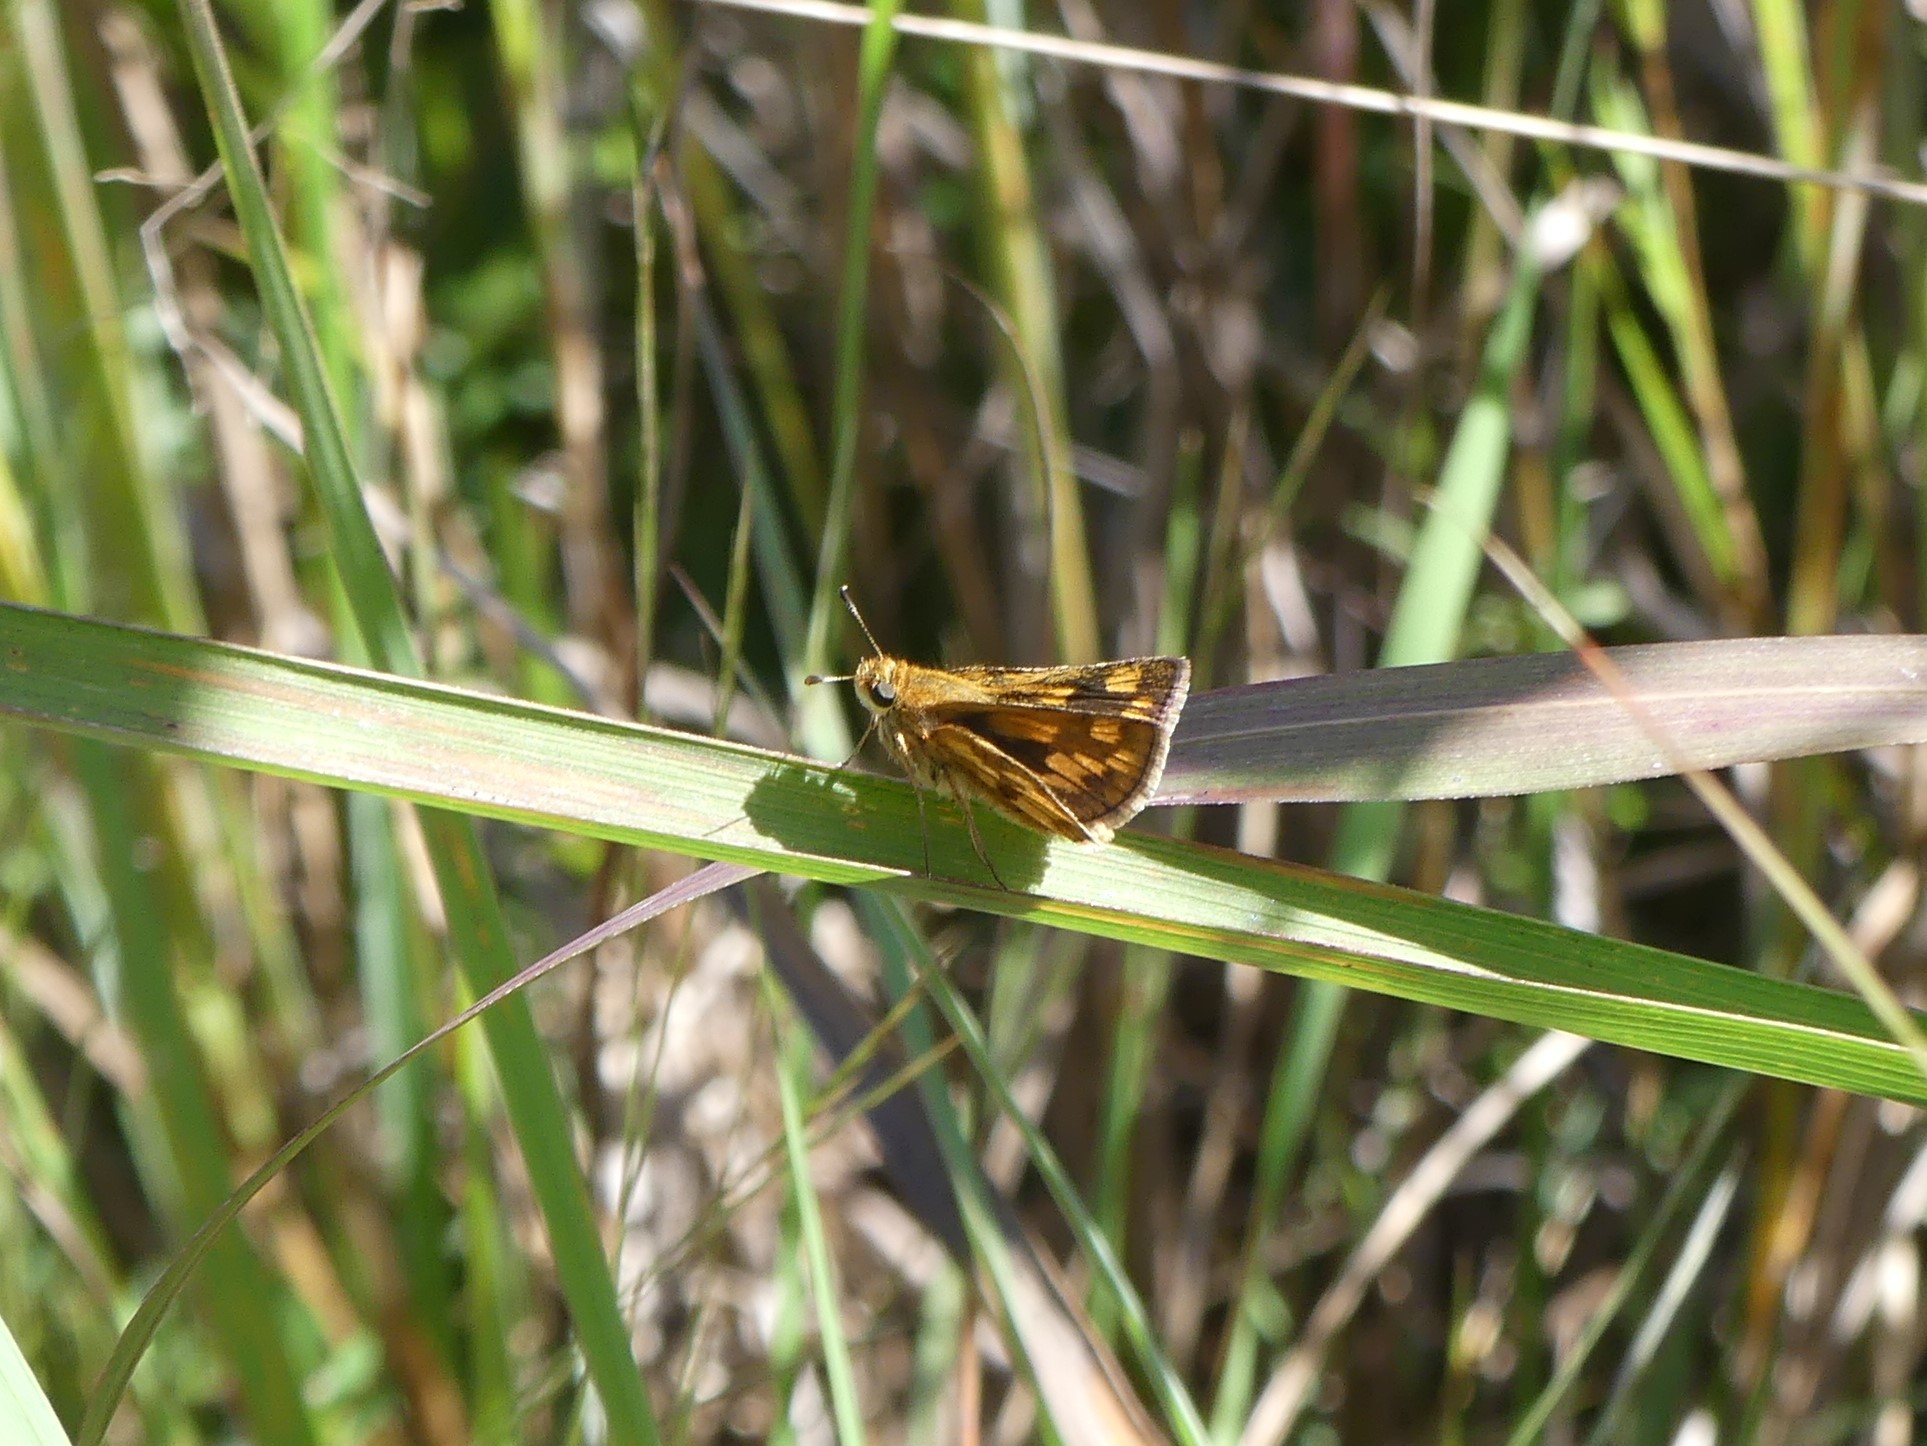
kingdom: Animalia
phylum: Arthropoda
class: Insecta
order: Lepidoptera
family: Hesperiidae
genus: Polites
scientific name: Polites coras
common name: Peck's skipper
